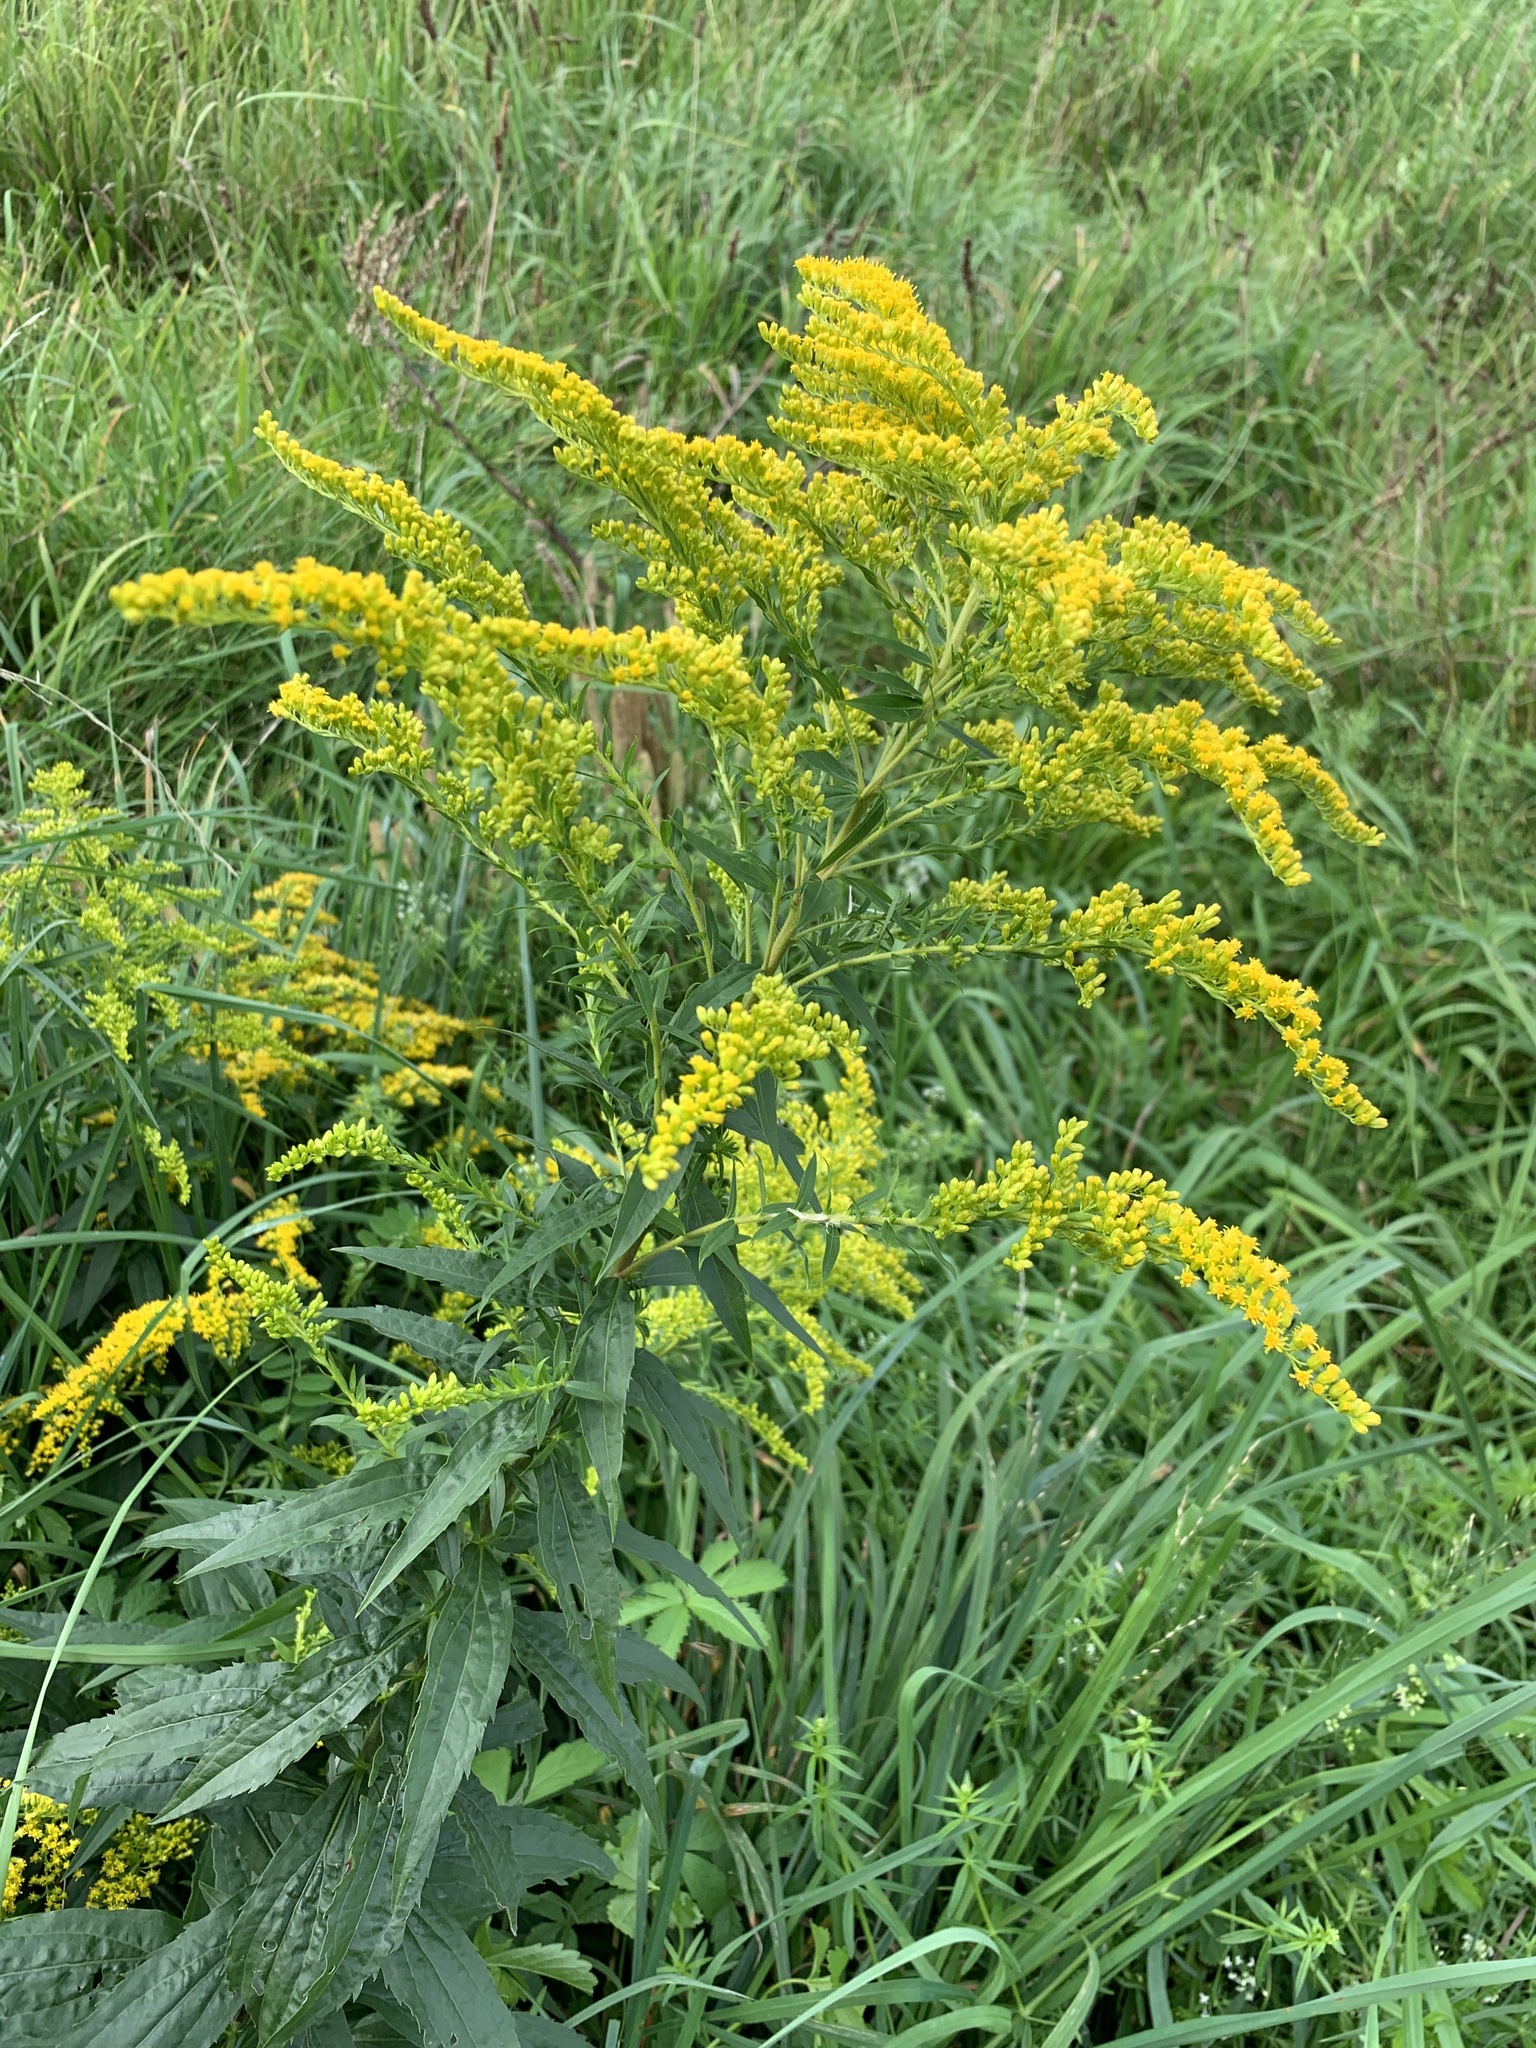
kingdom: Plantae
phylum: Tracheophyta
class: Magnoliopsida
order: Asterales
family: Asteraceae
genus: Solidago
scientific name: Solidago canadensis
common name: Canada goldenrod
